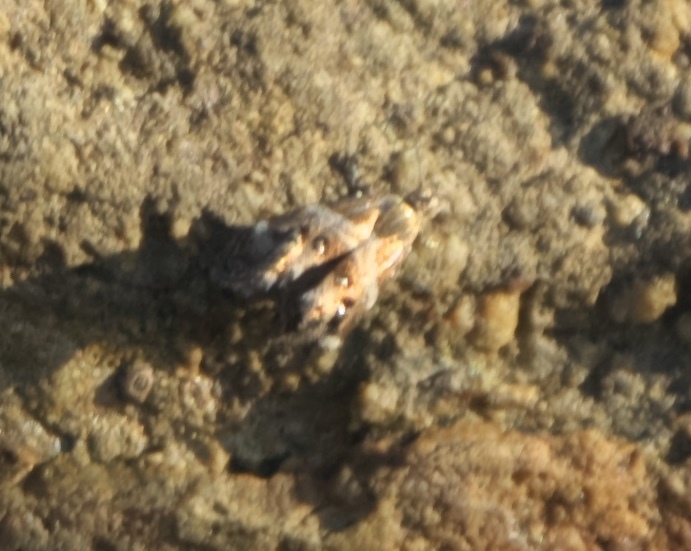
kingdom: Animalia
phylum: Arthropoda
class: Insecta
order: Lepidoptera
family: Choreutidae
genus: Tebenna
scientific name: Tebenna micalis
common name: Vagrant twitcher
